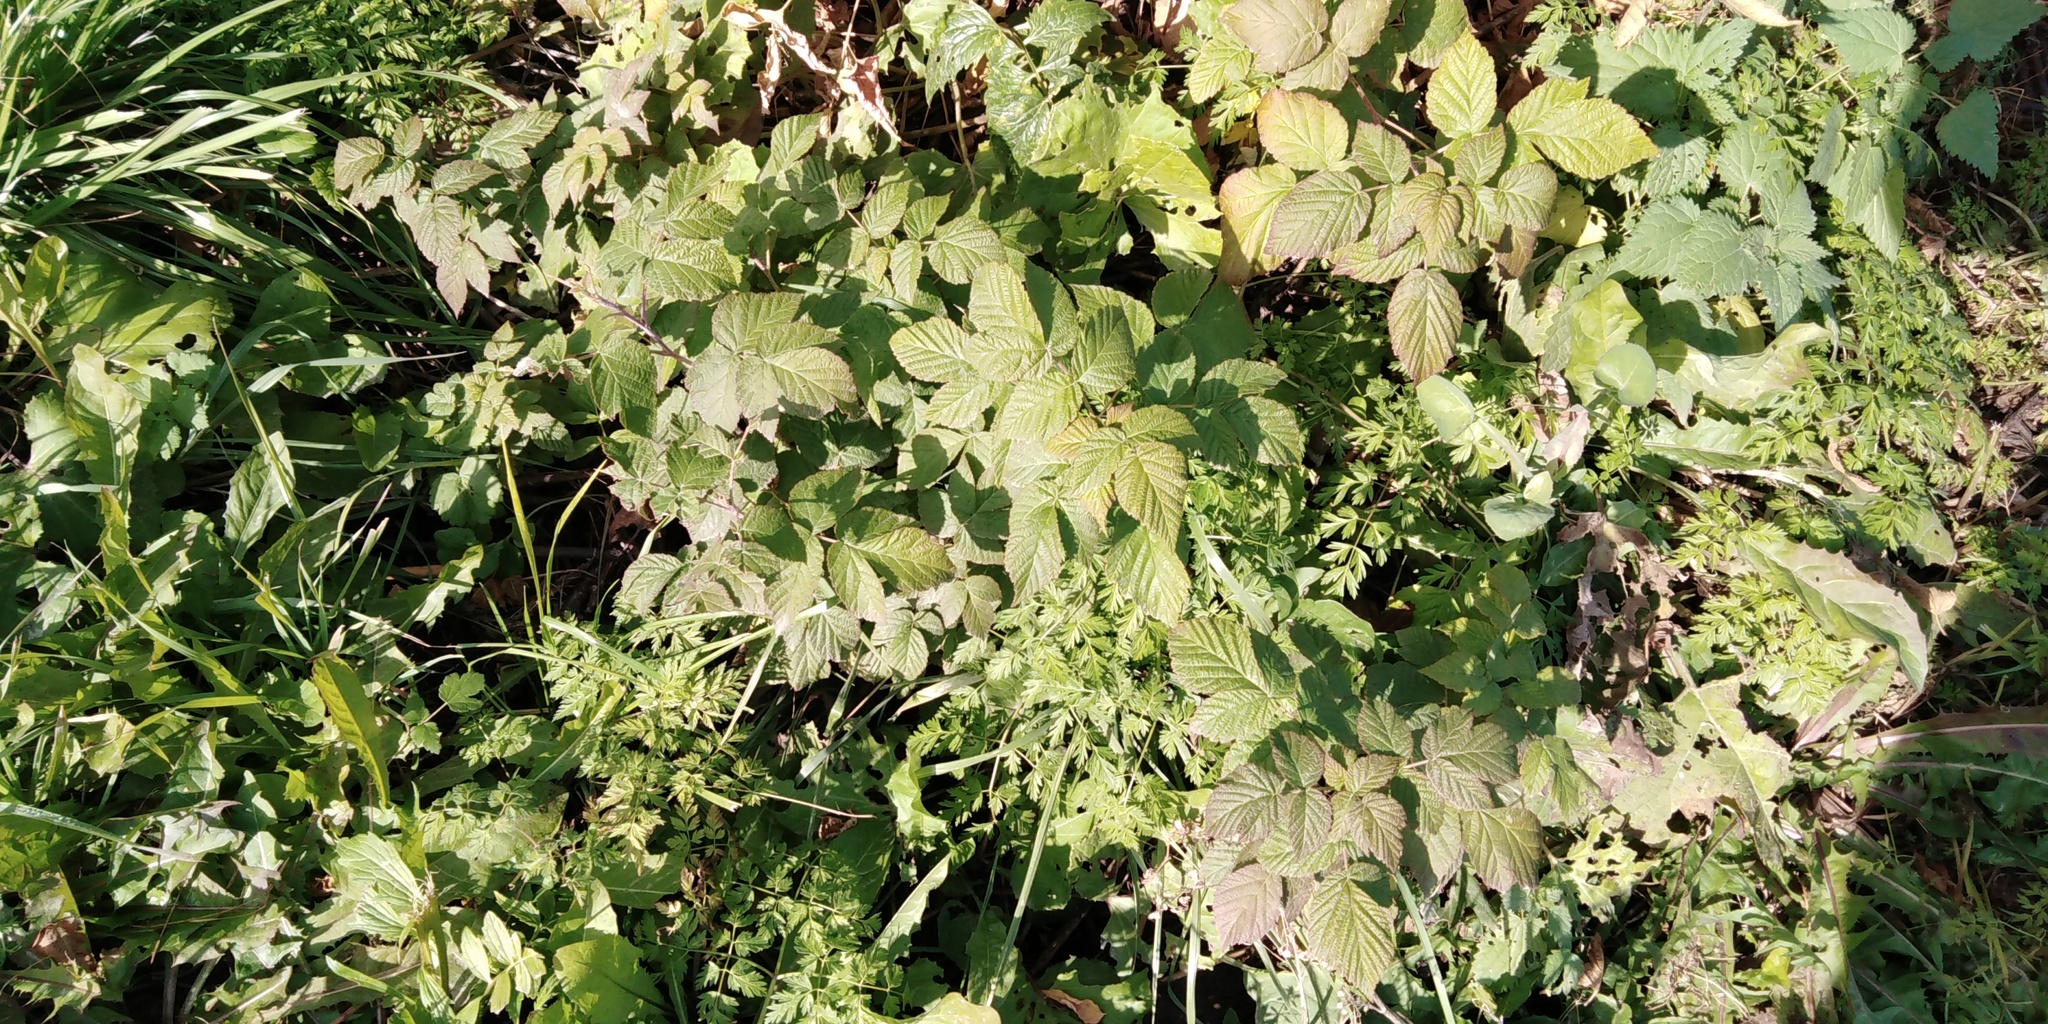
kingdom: Plantae
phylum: Tracheophyta
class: Magnoliopsida
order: Rosales
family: Rosaceae
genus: Rubus
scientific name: Rubus idaeus
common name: Raspberry
